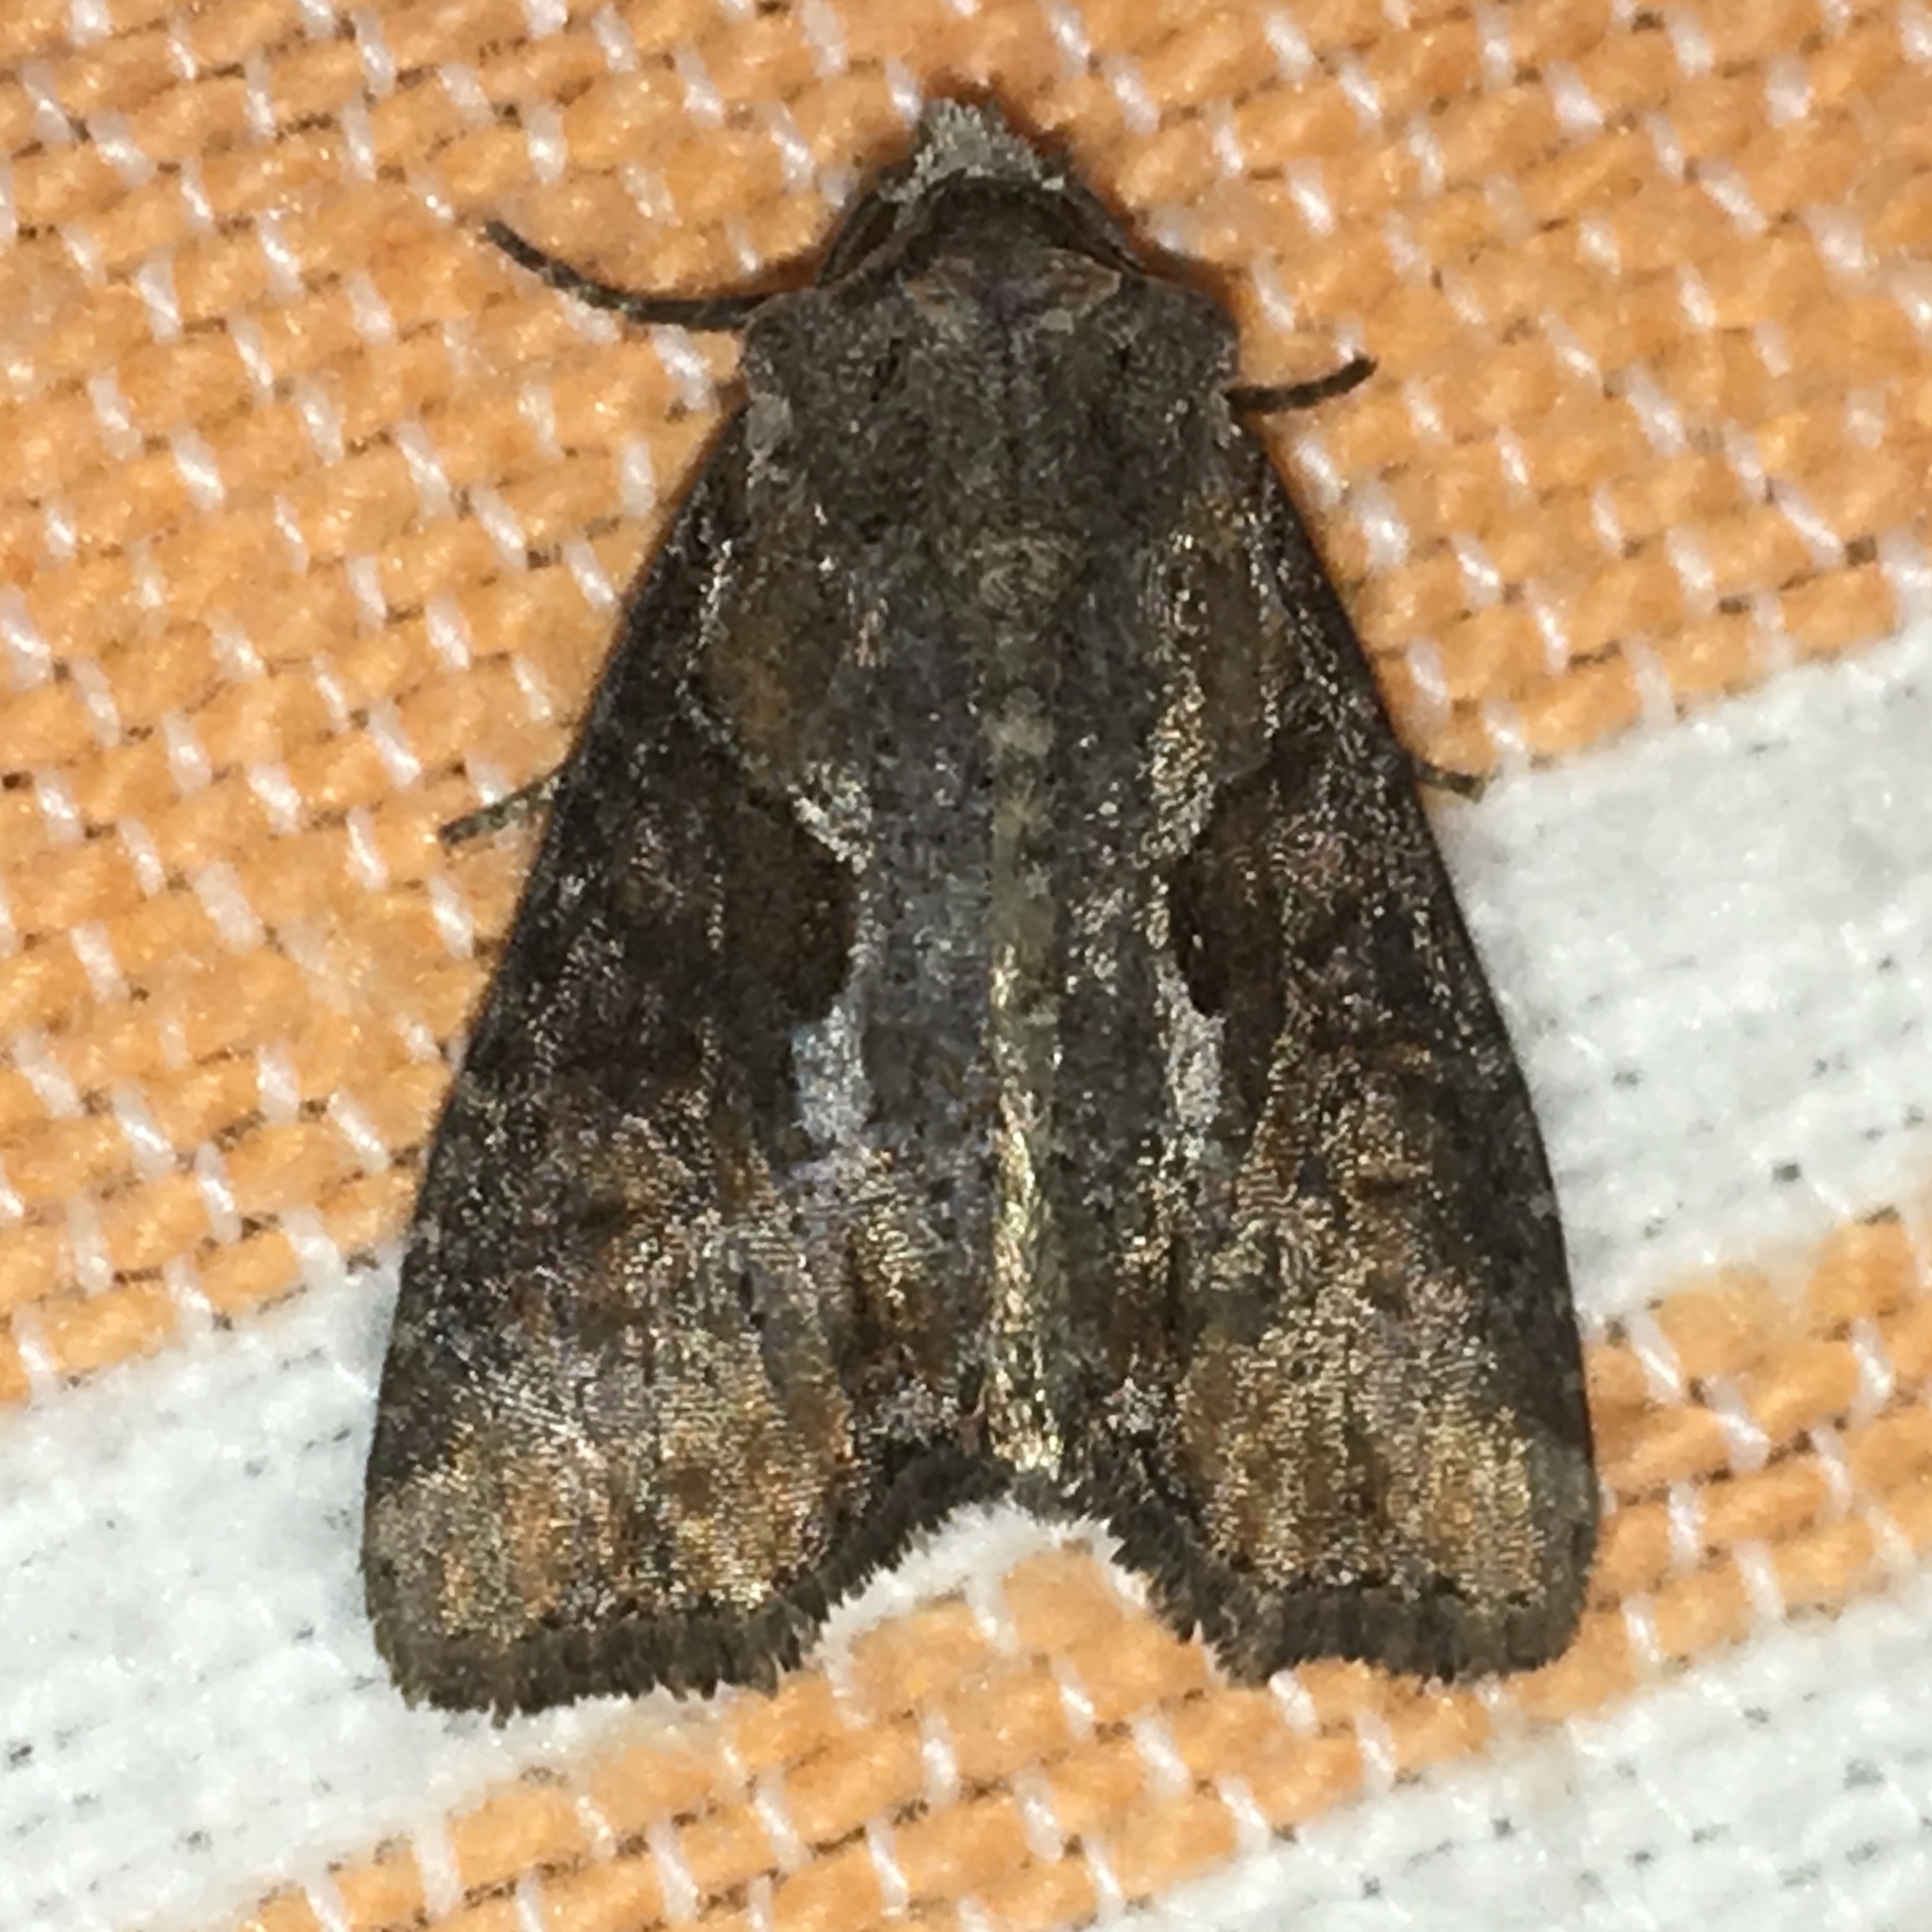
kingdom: Animalia
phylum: Arthropoda
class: Insecta
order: Lepidoptera
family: Noctuidae
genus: Lateroligia
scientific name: Lateroligia ophiogramma
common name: Double lobed
